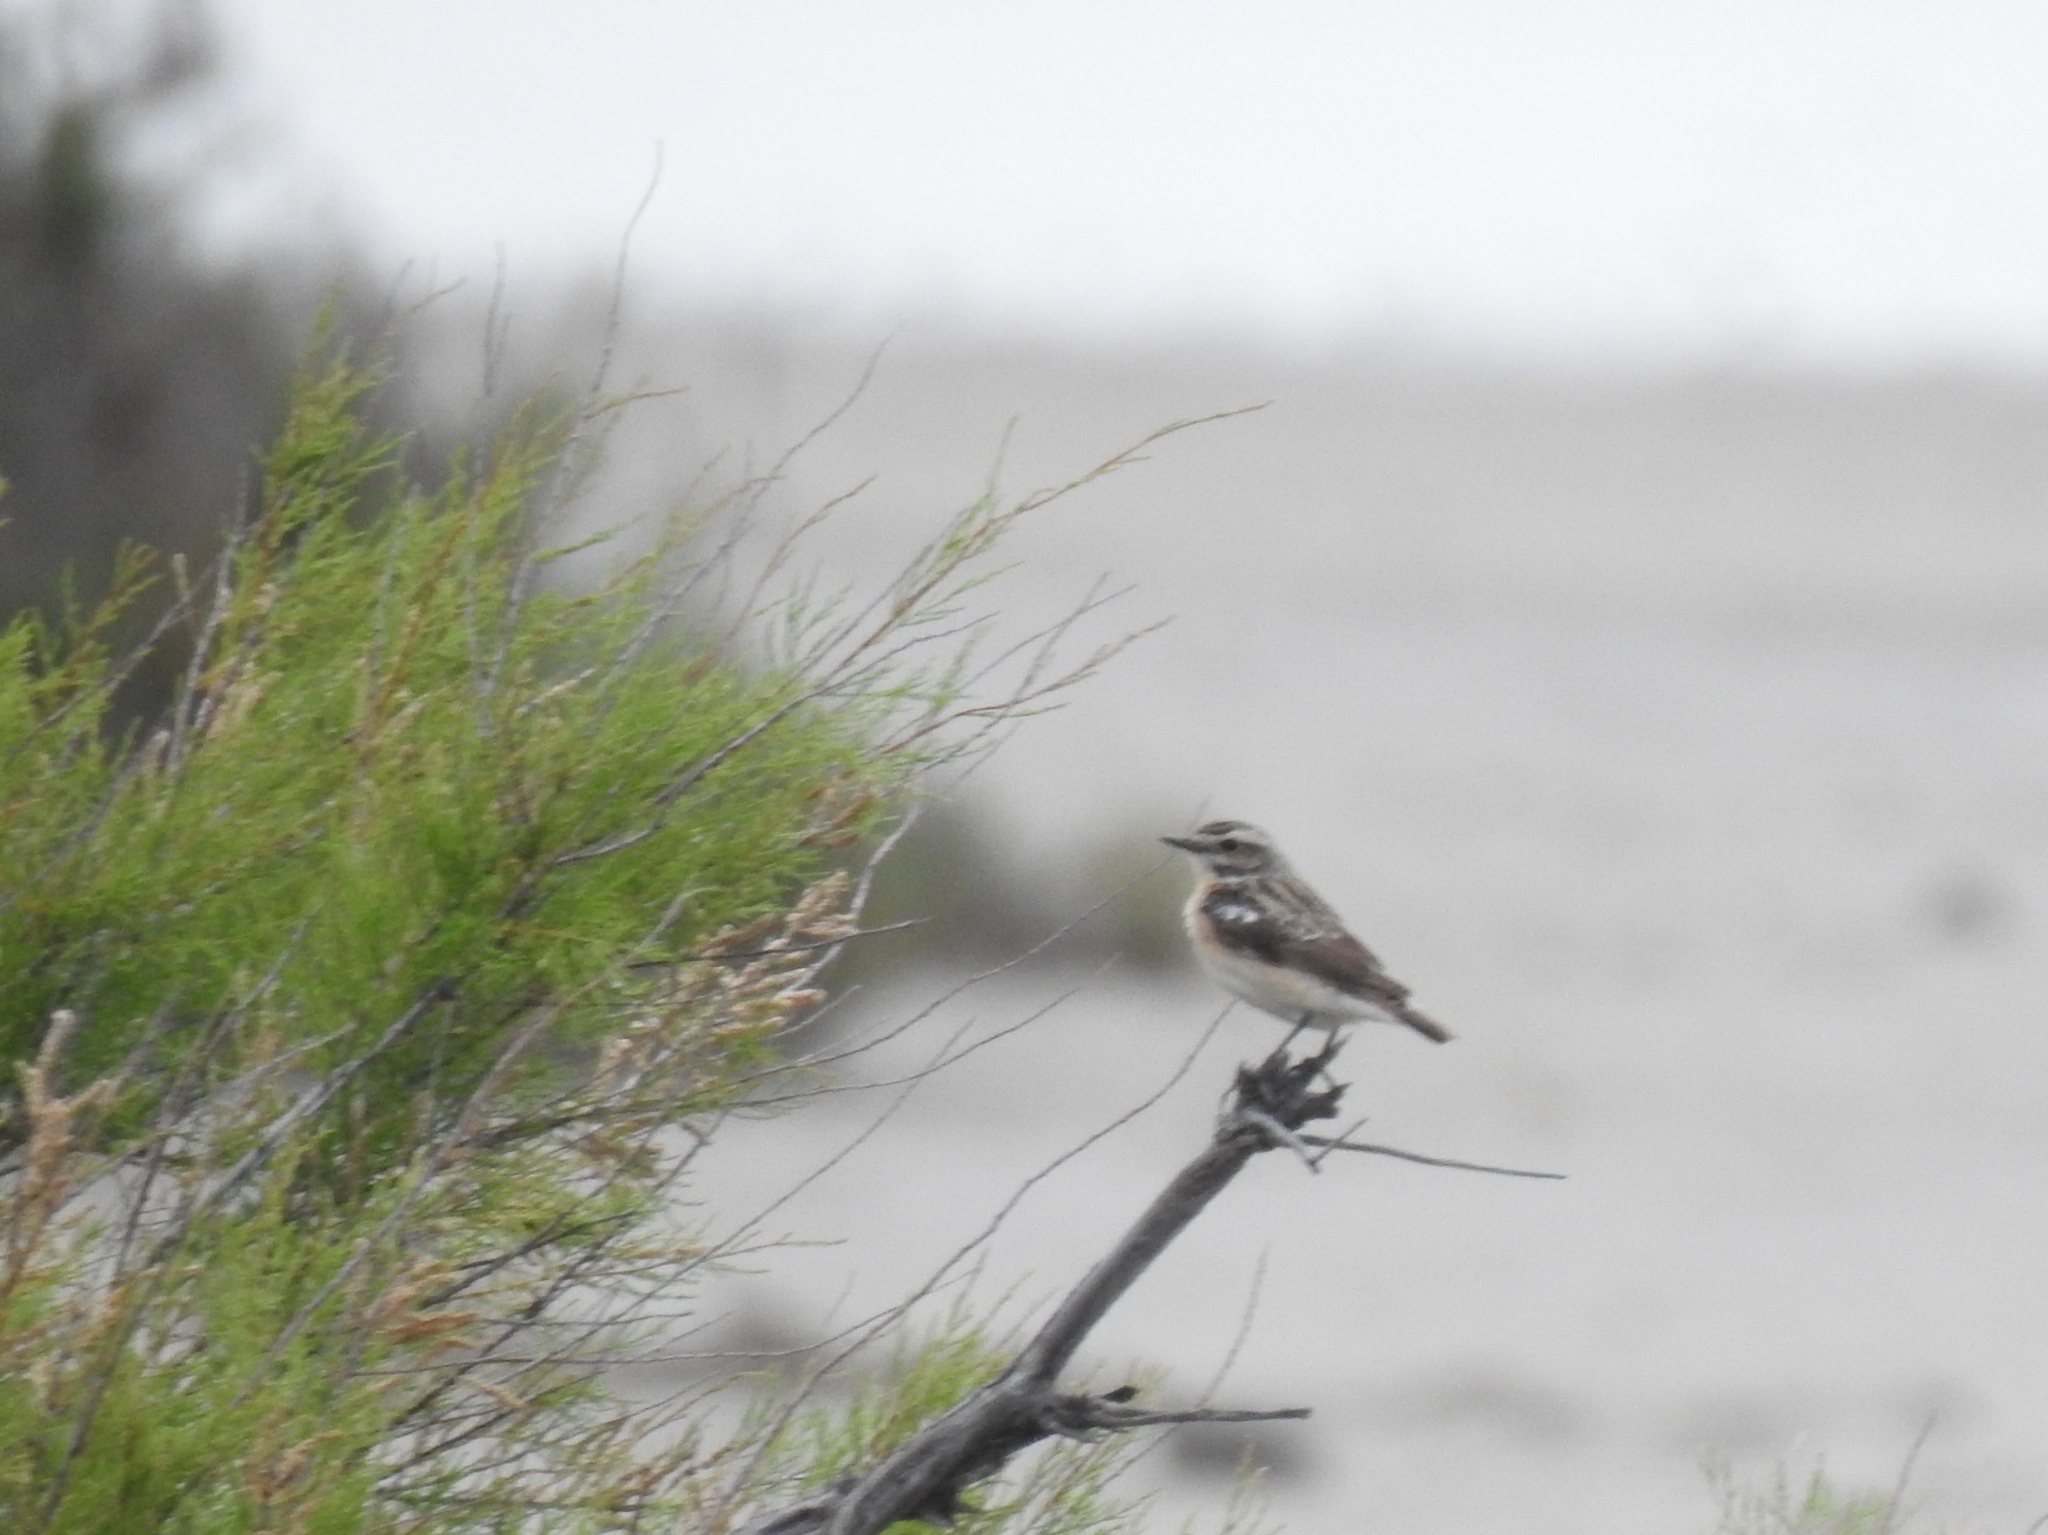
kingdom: Animalia
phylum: Chordata
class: Aves
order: Passeriformes
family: Muscicapidae
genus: Saxicola
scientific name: Saxicola rubetra
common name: Whinchat
